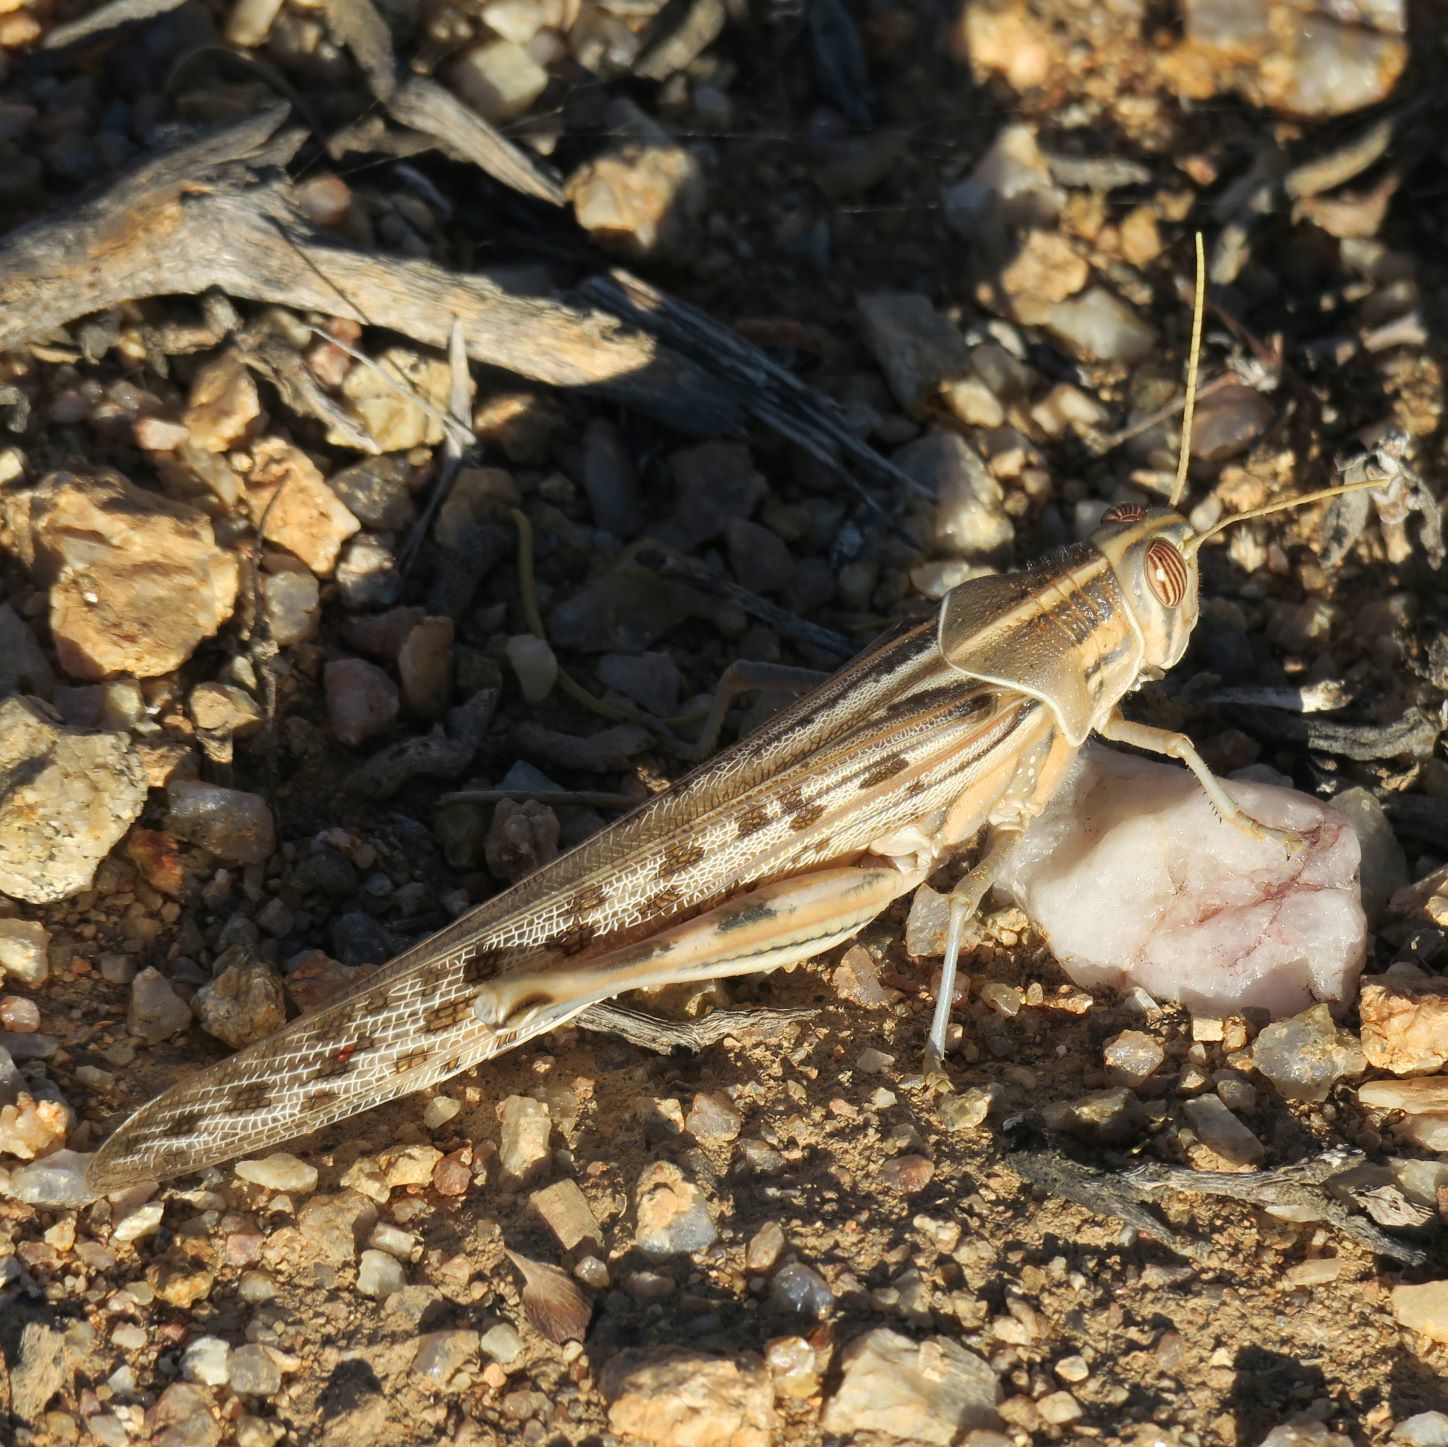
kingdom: Animalia
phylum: Arthropoda
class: Insecta
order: Orthoptera
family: Acrididae
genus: Schistocerca
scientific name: Schistocerca gregaria
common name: Desert locust
